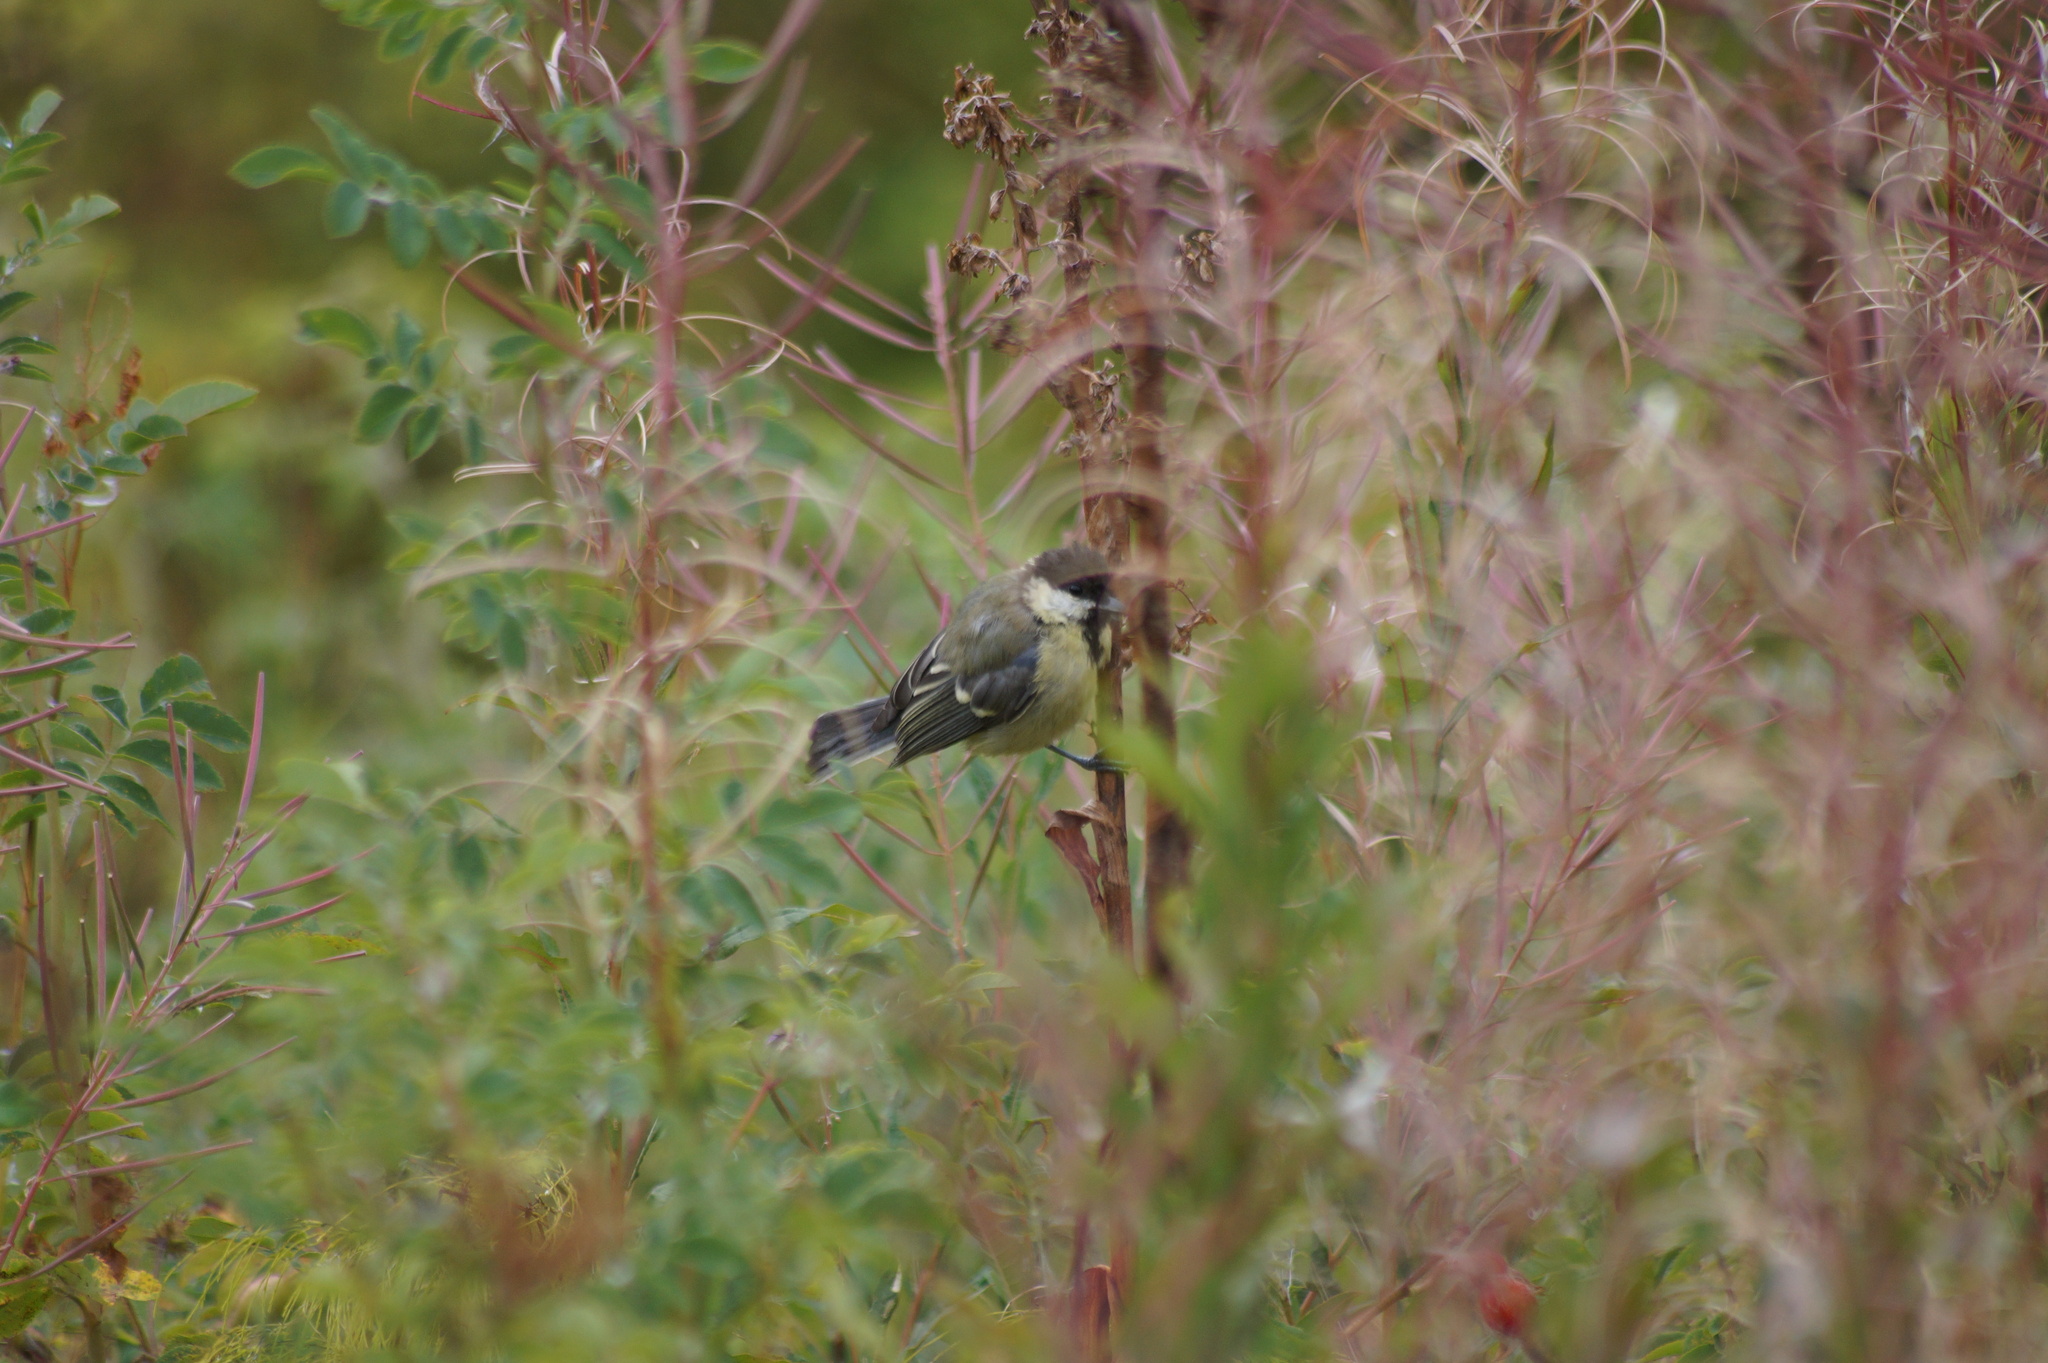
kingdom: Animalia
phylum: Chordata
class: Aves
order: Passeriformes
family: Paridae
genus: Parus
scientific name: Parus major
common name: Great tit
